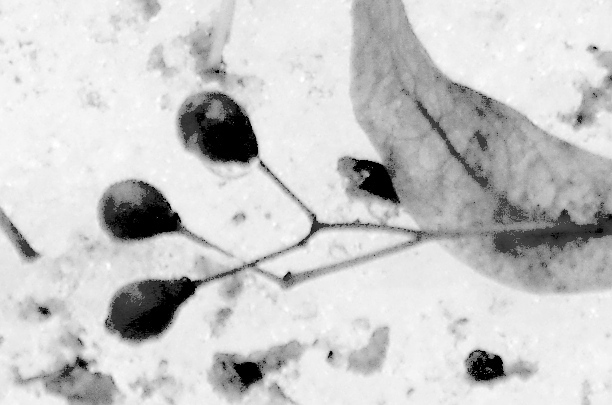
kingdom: Plantae
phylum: Tracheophyta
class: Magnoliopsida
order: Malvales
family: Malvaceae
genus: Tilia
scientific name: Tilia cordata
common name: Small-leaved lime
